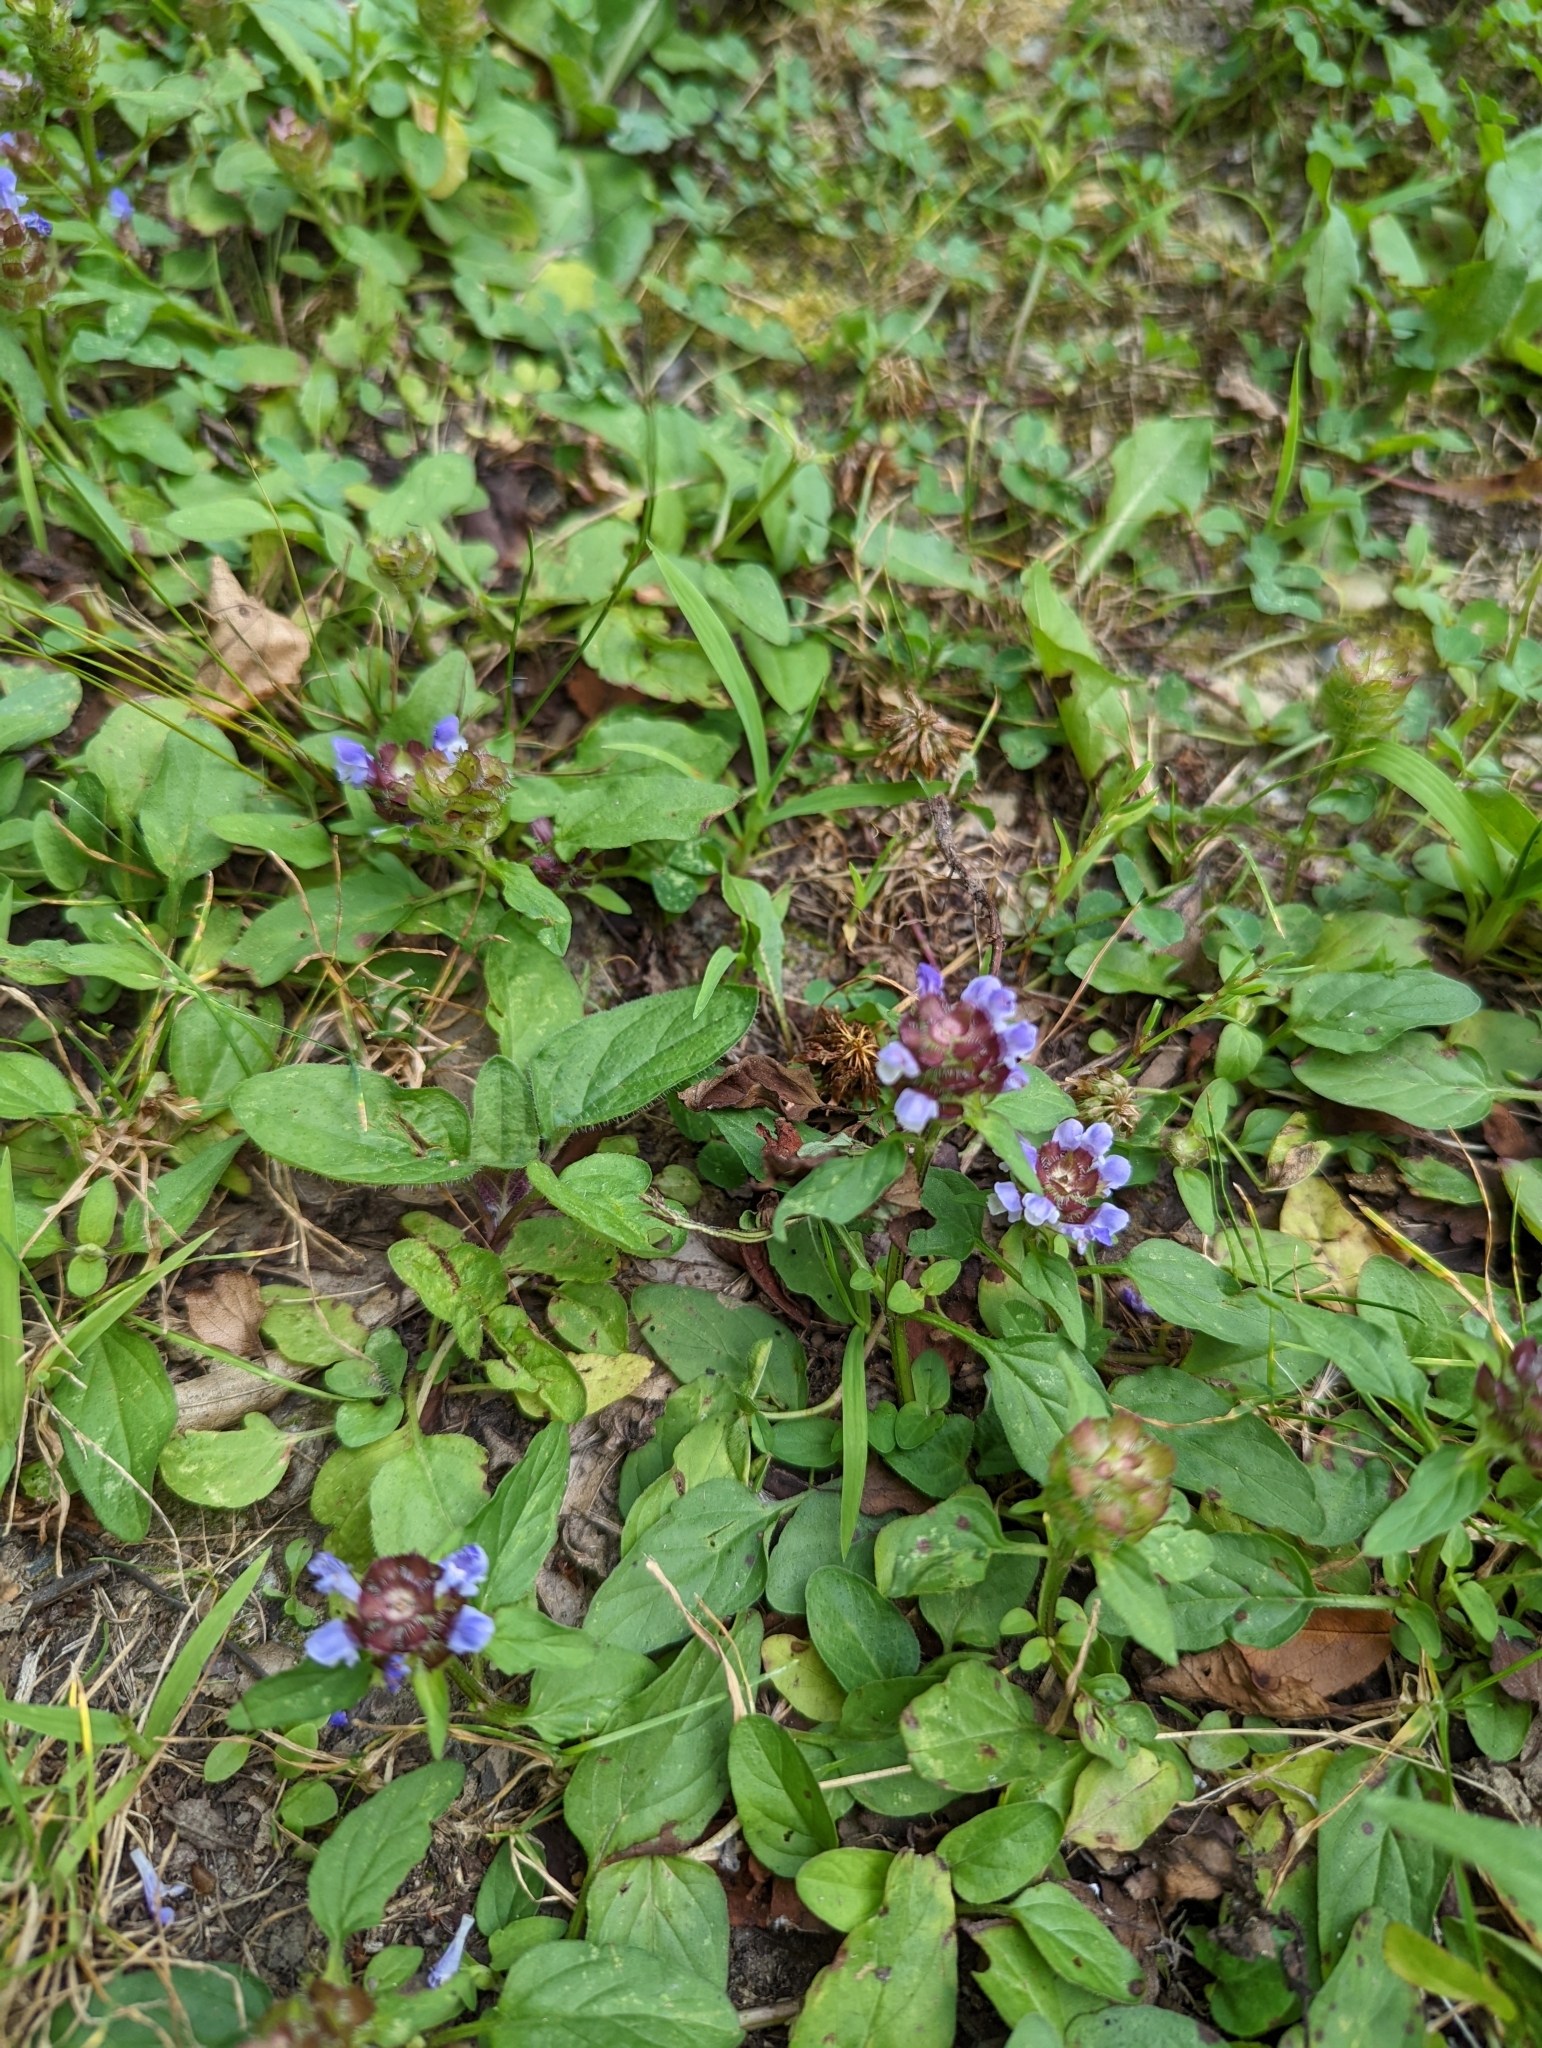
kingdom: Plantae
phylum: Tracheophyta
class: Magnoliopsida
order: Lamiales
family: Lamiaceae
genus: Prunella
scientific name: Prunella vulgaris
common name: Heal-all
